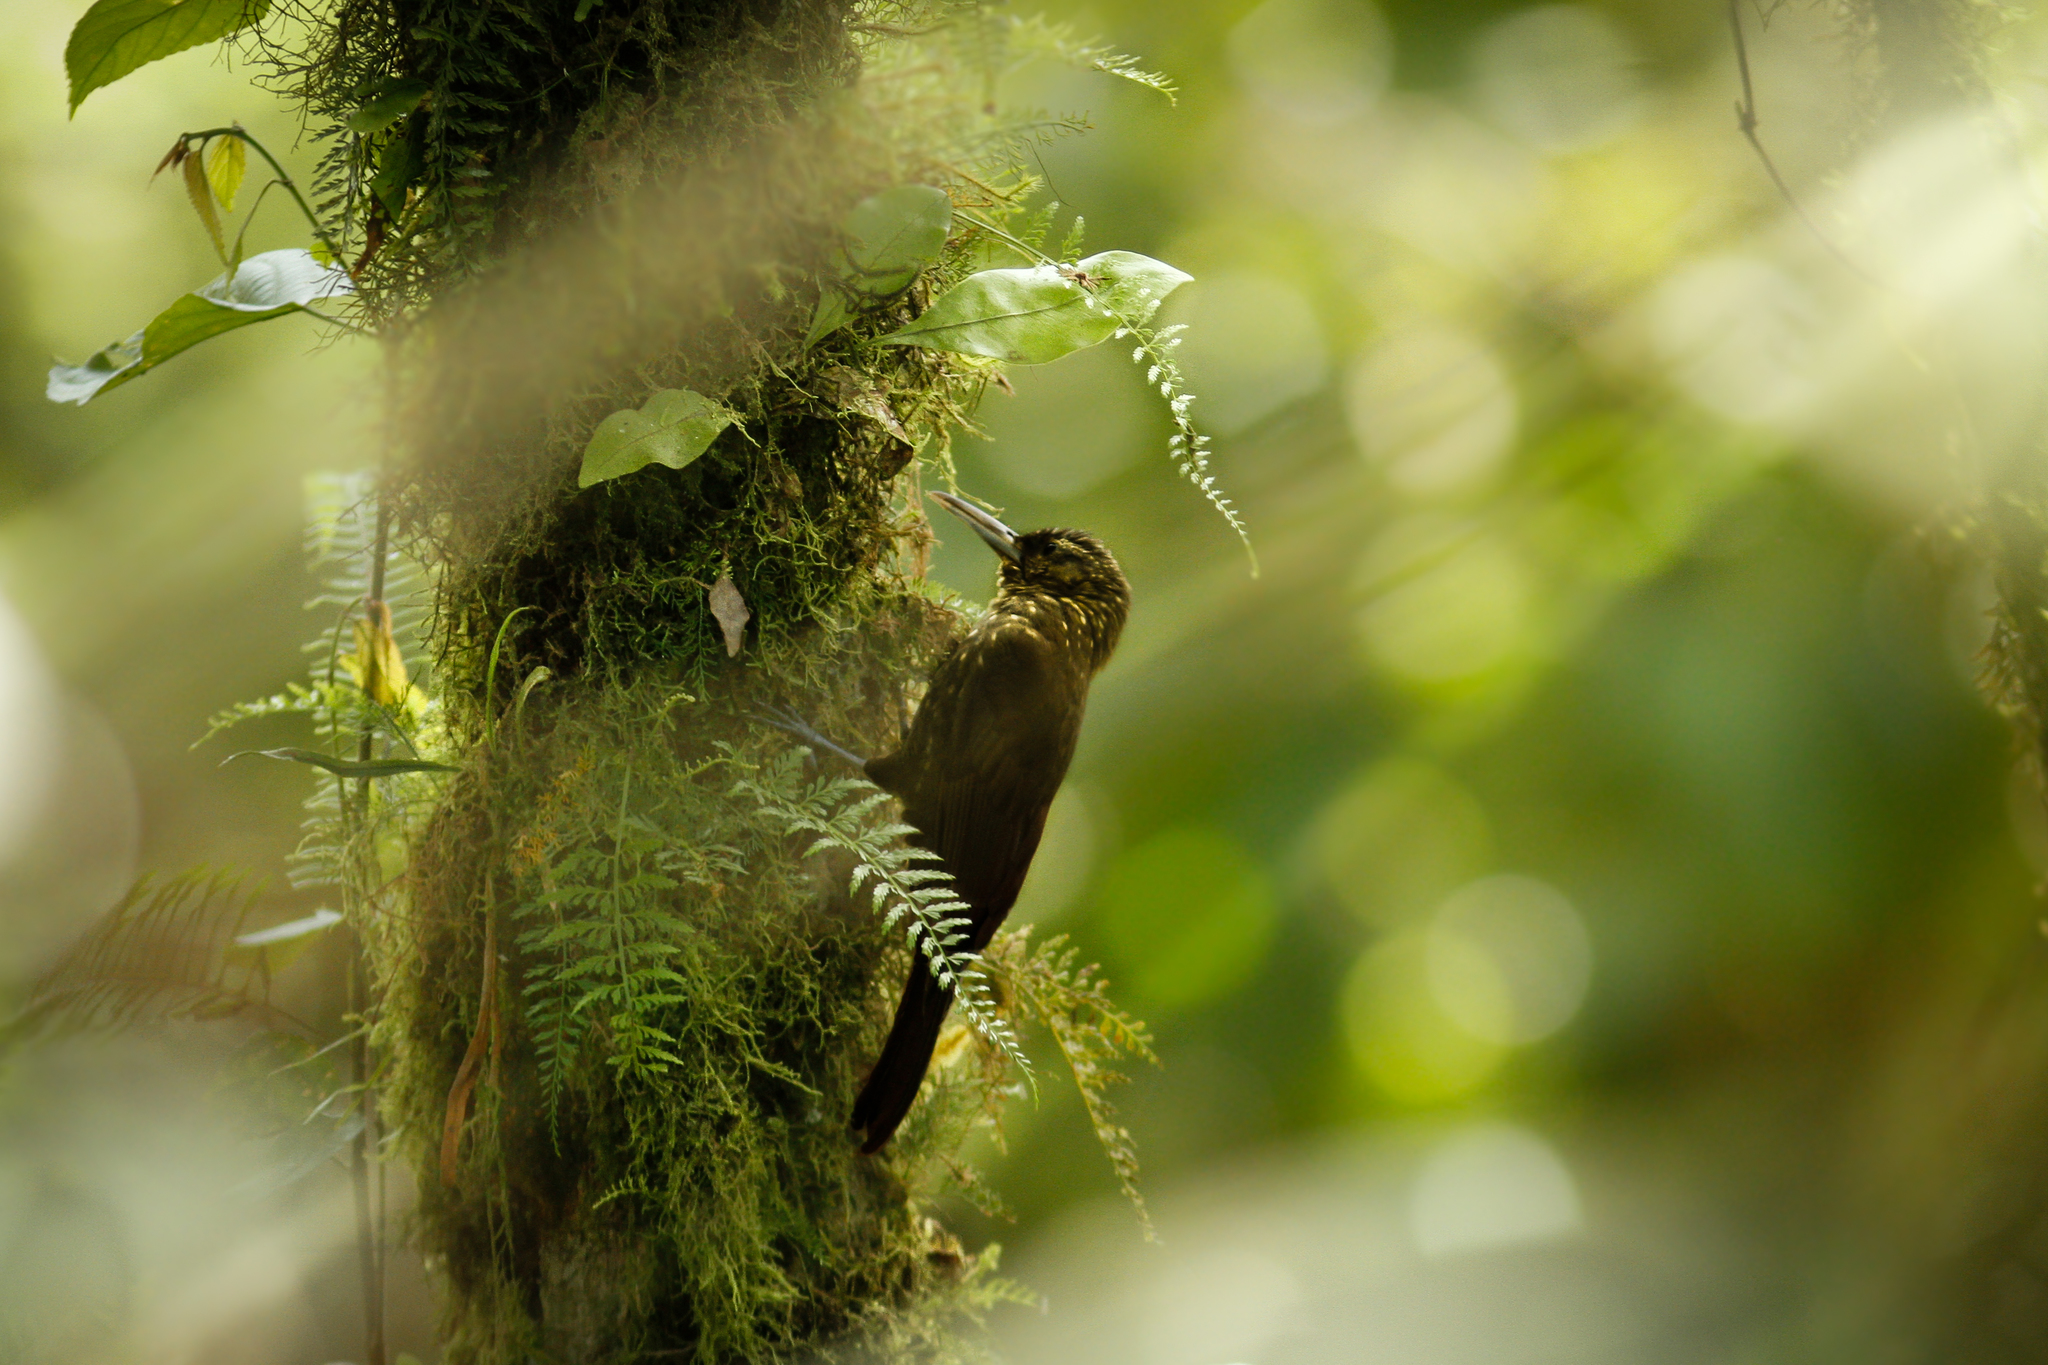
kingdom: Animalia
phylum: Chordata
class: Aves
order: Passeriformes
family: Furnariidae
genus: Xiphorhynchus
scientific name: Xiphorhynchus erythropygius
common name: Spotted woodcreeper
